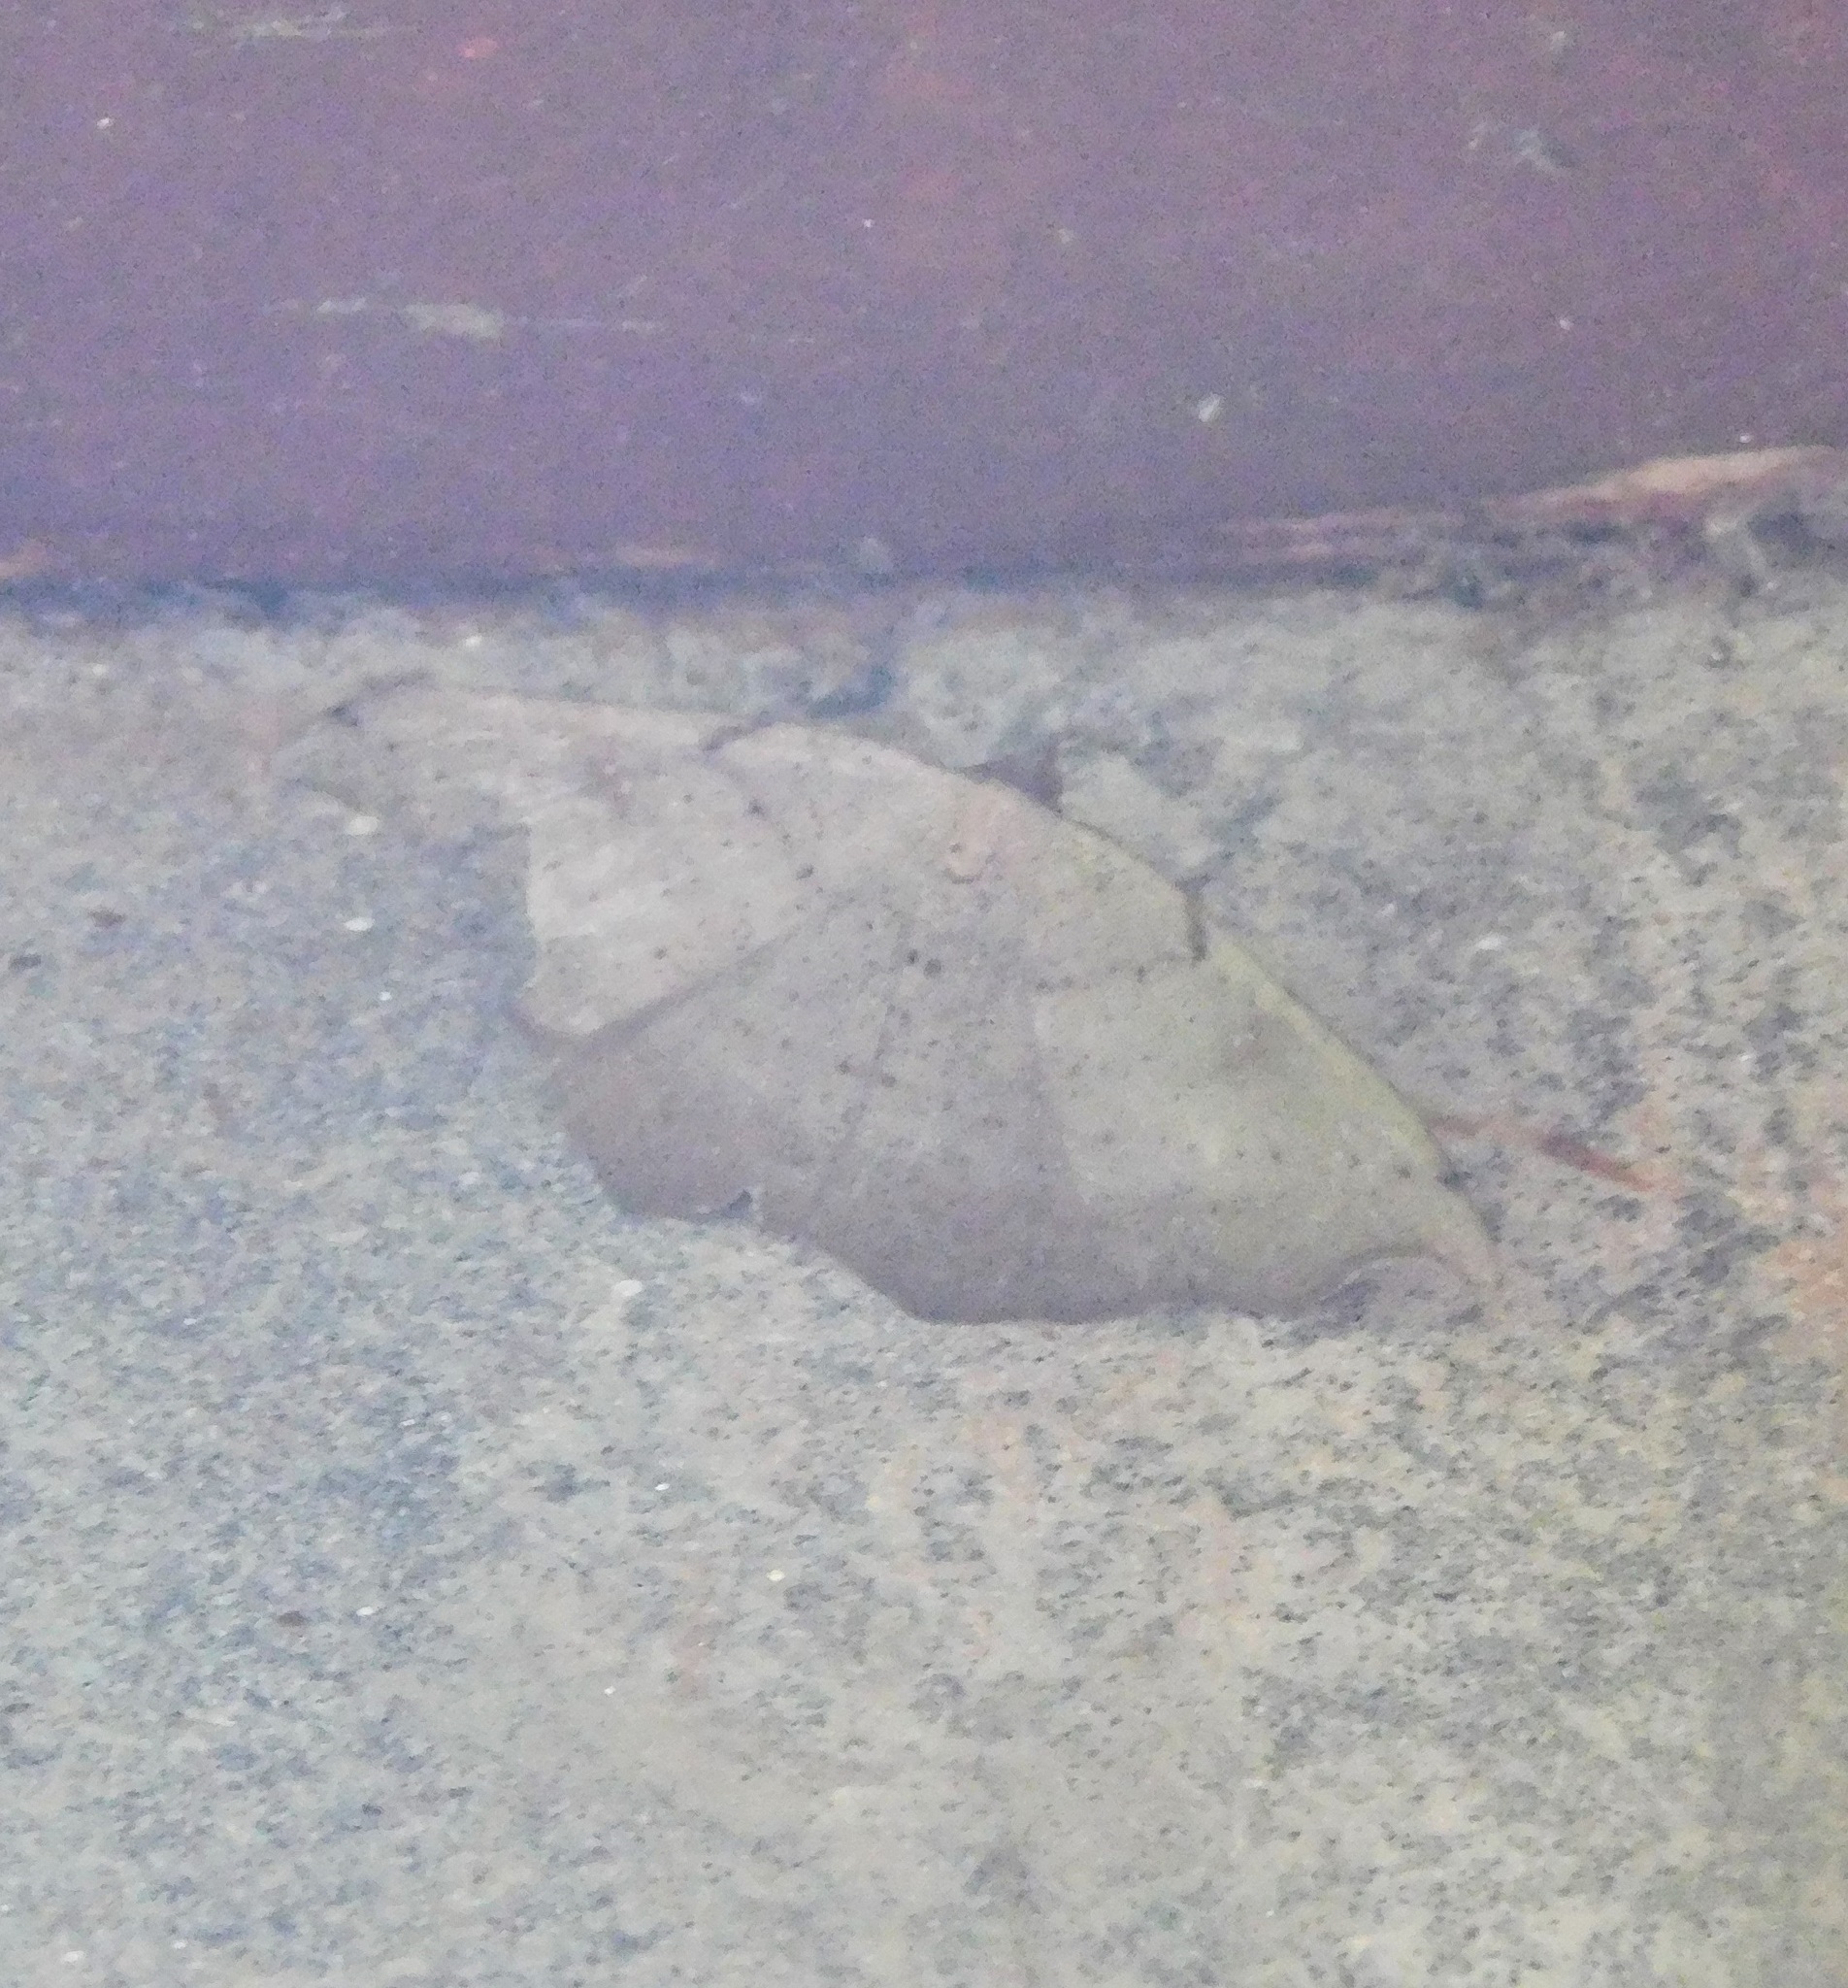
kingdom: Animalia
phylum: Arthropoda
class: Insecta
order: Lepidoptera
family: Geometridae
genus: Sarisa
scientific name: Sarisa muriferata
